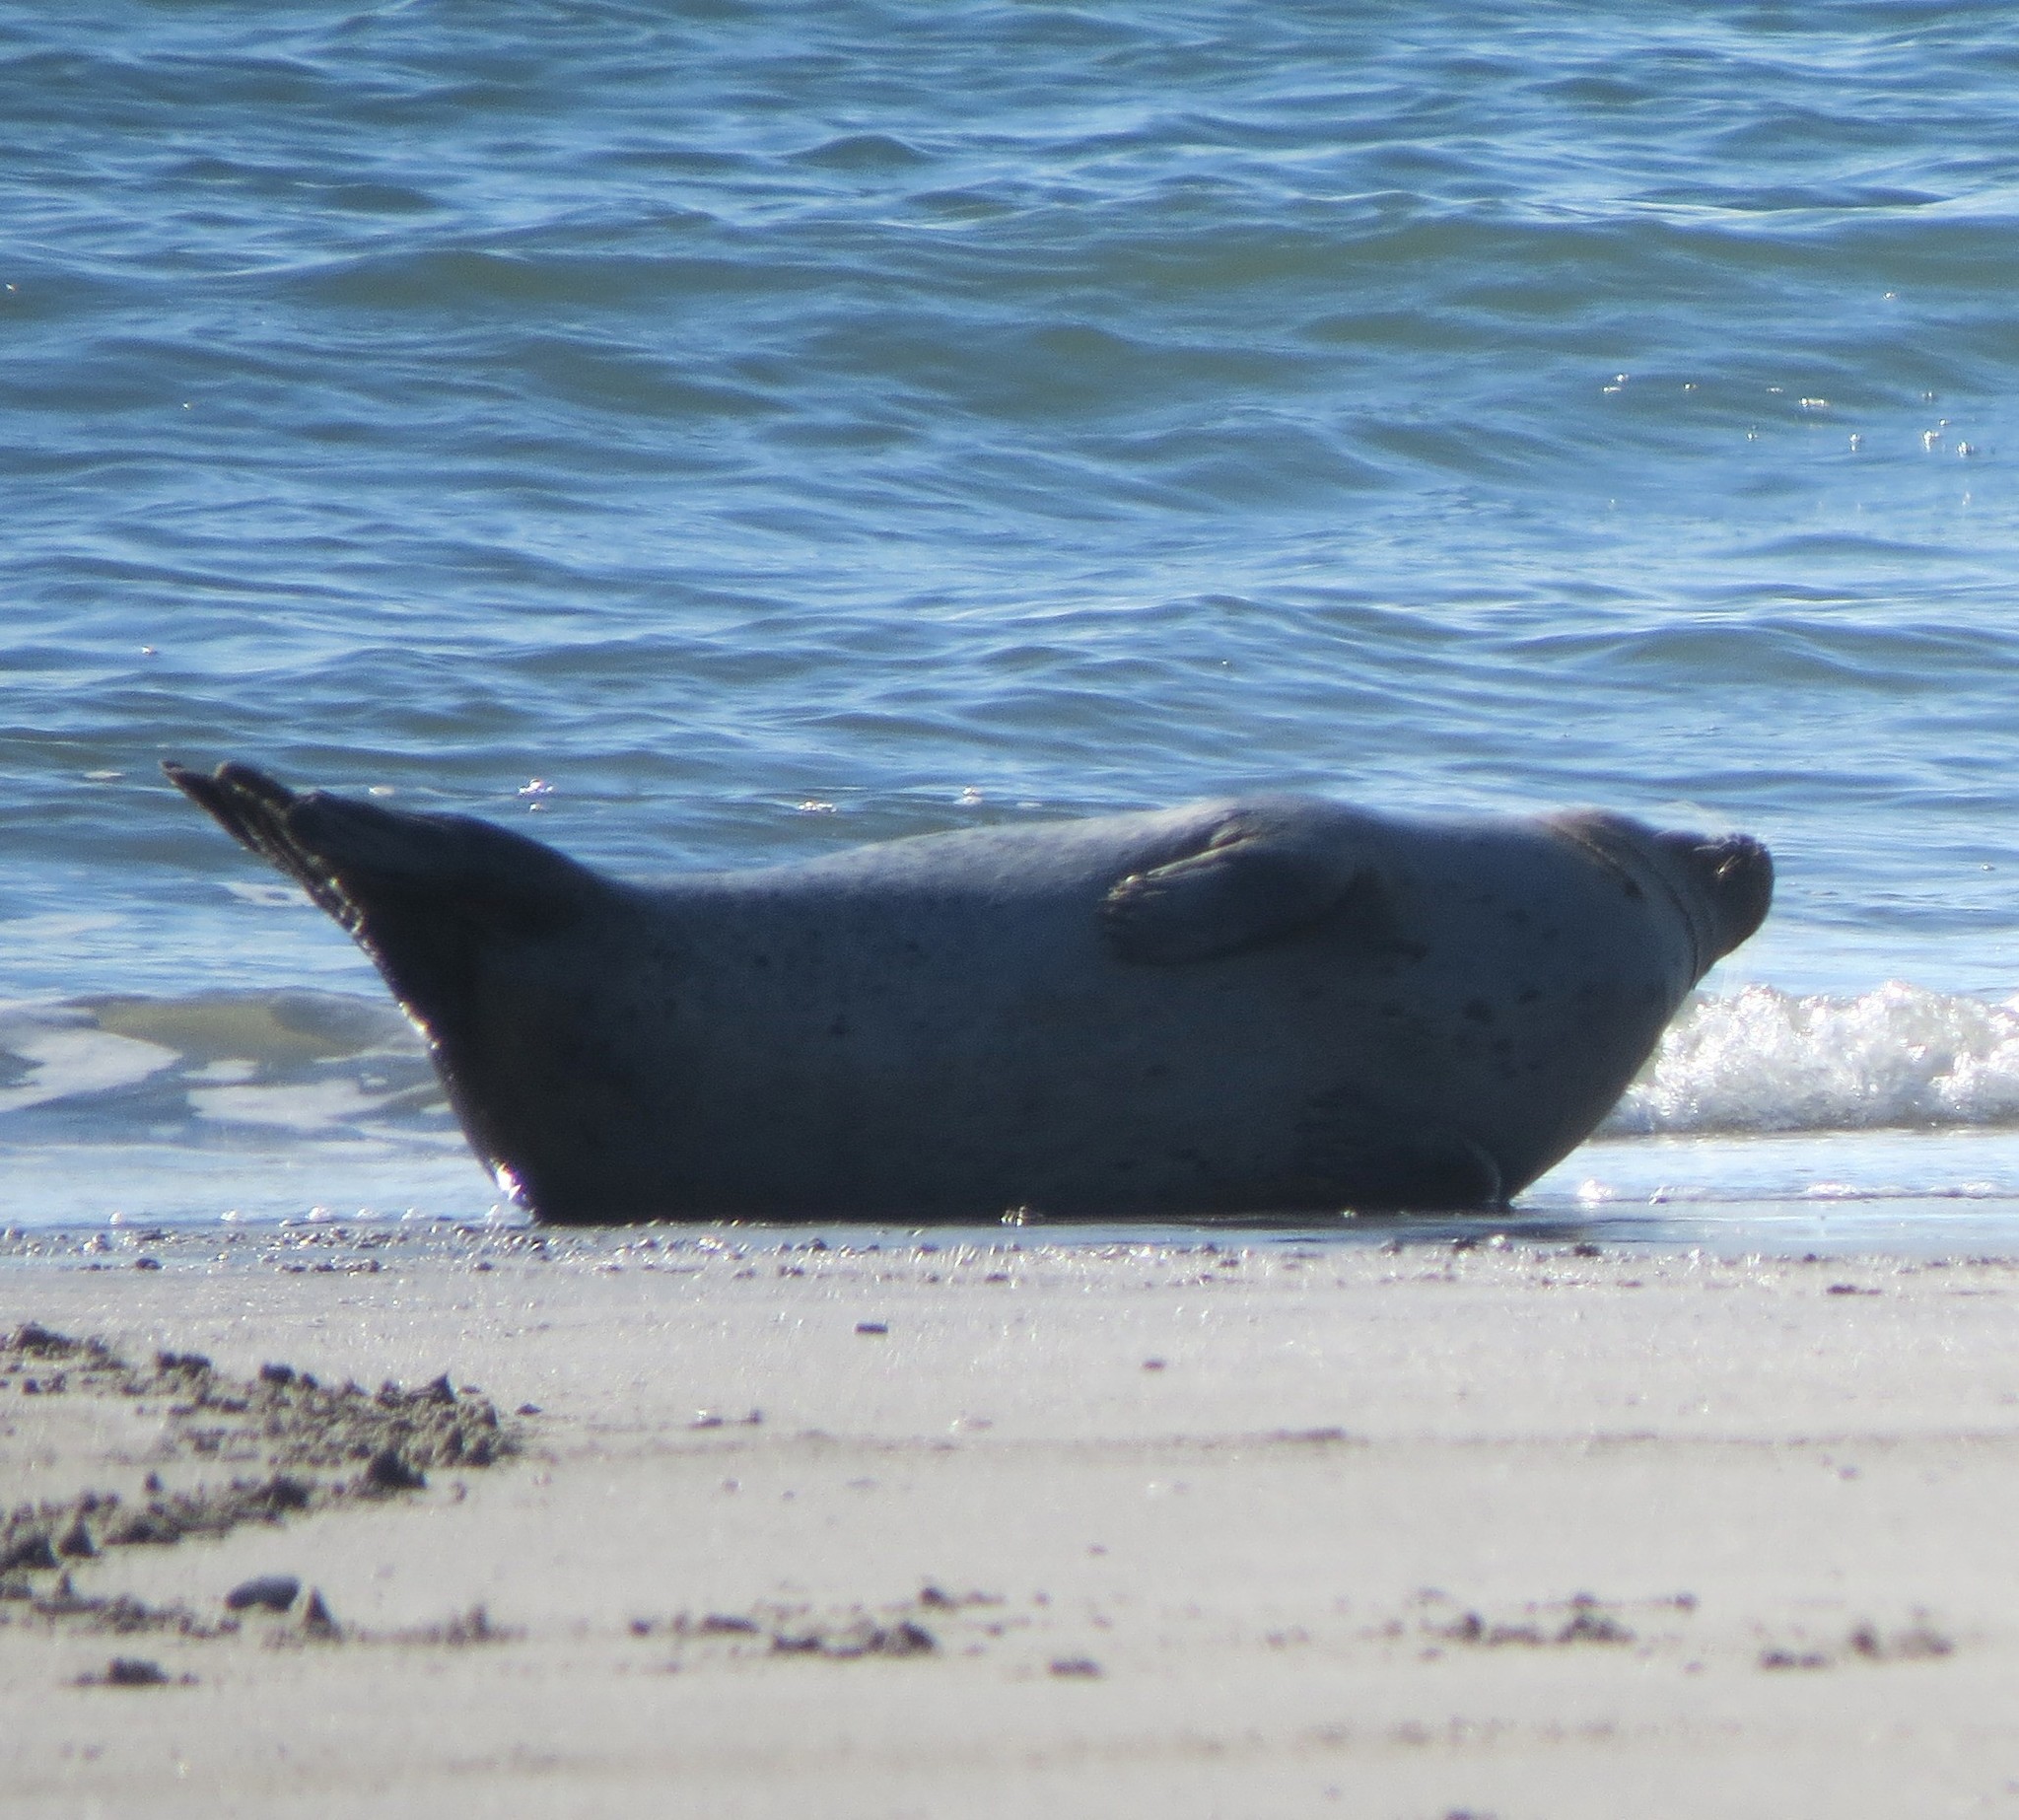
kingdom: Animalia
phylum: Chordata
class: Mammalia
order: Carnivora
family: Phocidae
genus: Phoca
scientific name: Phoca vitulina
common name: Harbor seal
